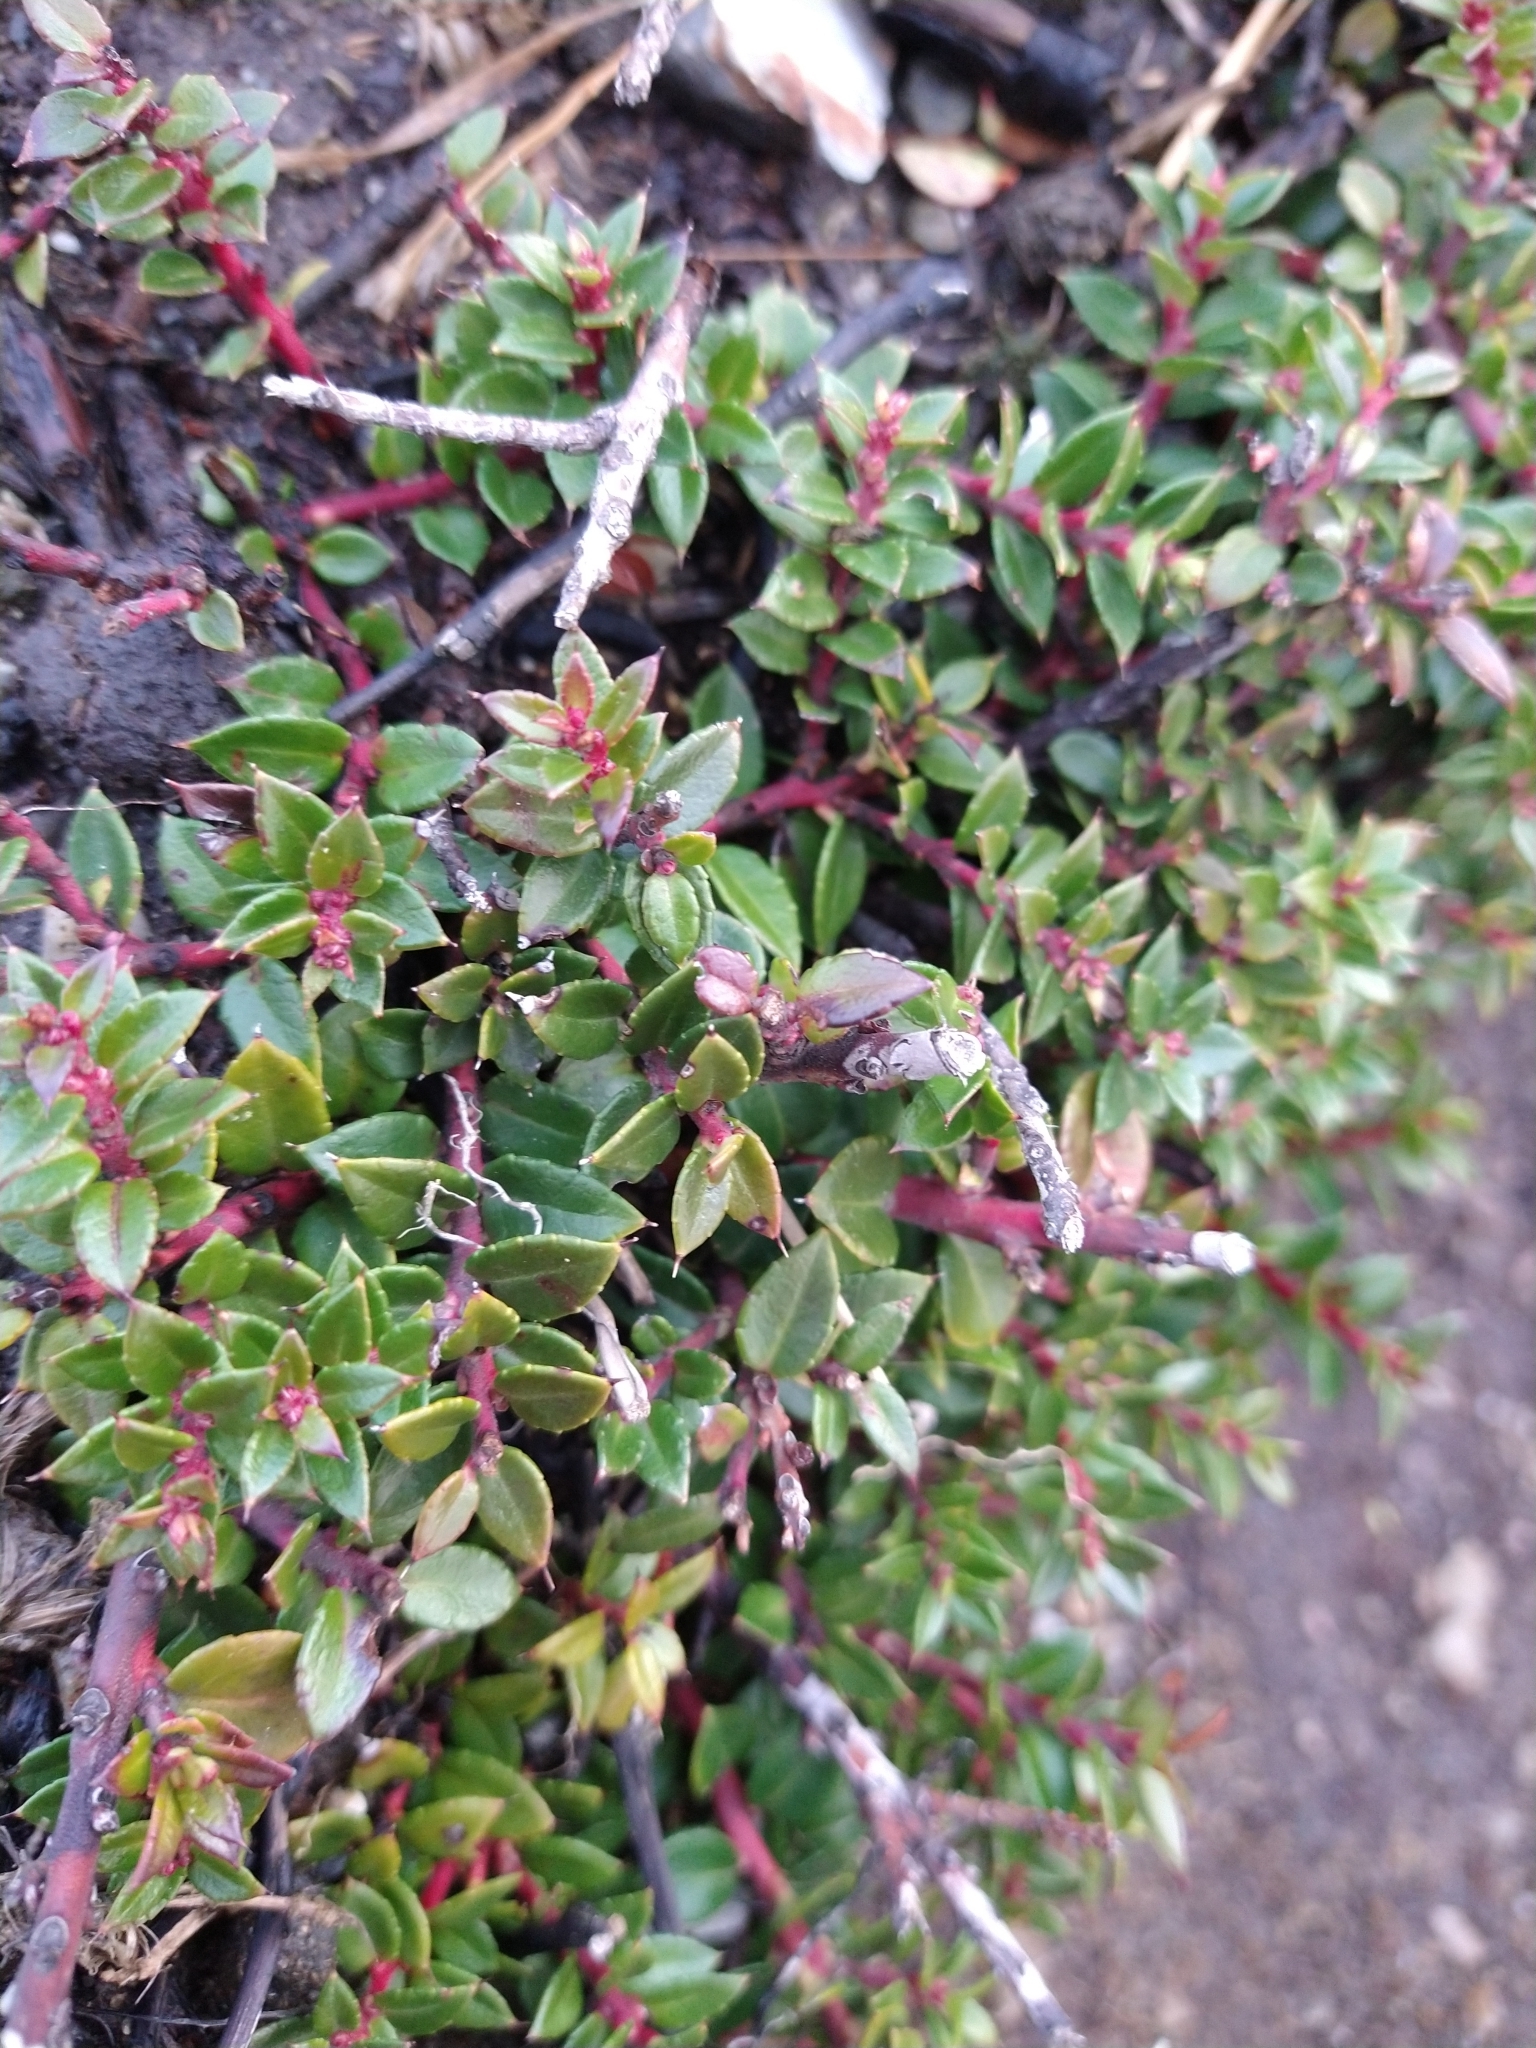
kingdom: Plantae
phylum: Tracheophyta
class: Magnoliopsida
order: Ericales
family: Ericaceae
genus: Gaultheria
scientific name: Gaultheria mucronata
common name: Prickly heath
